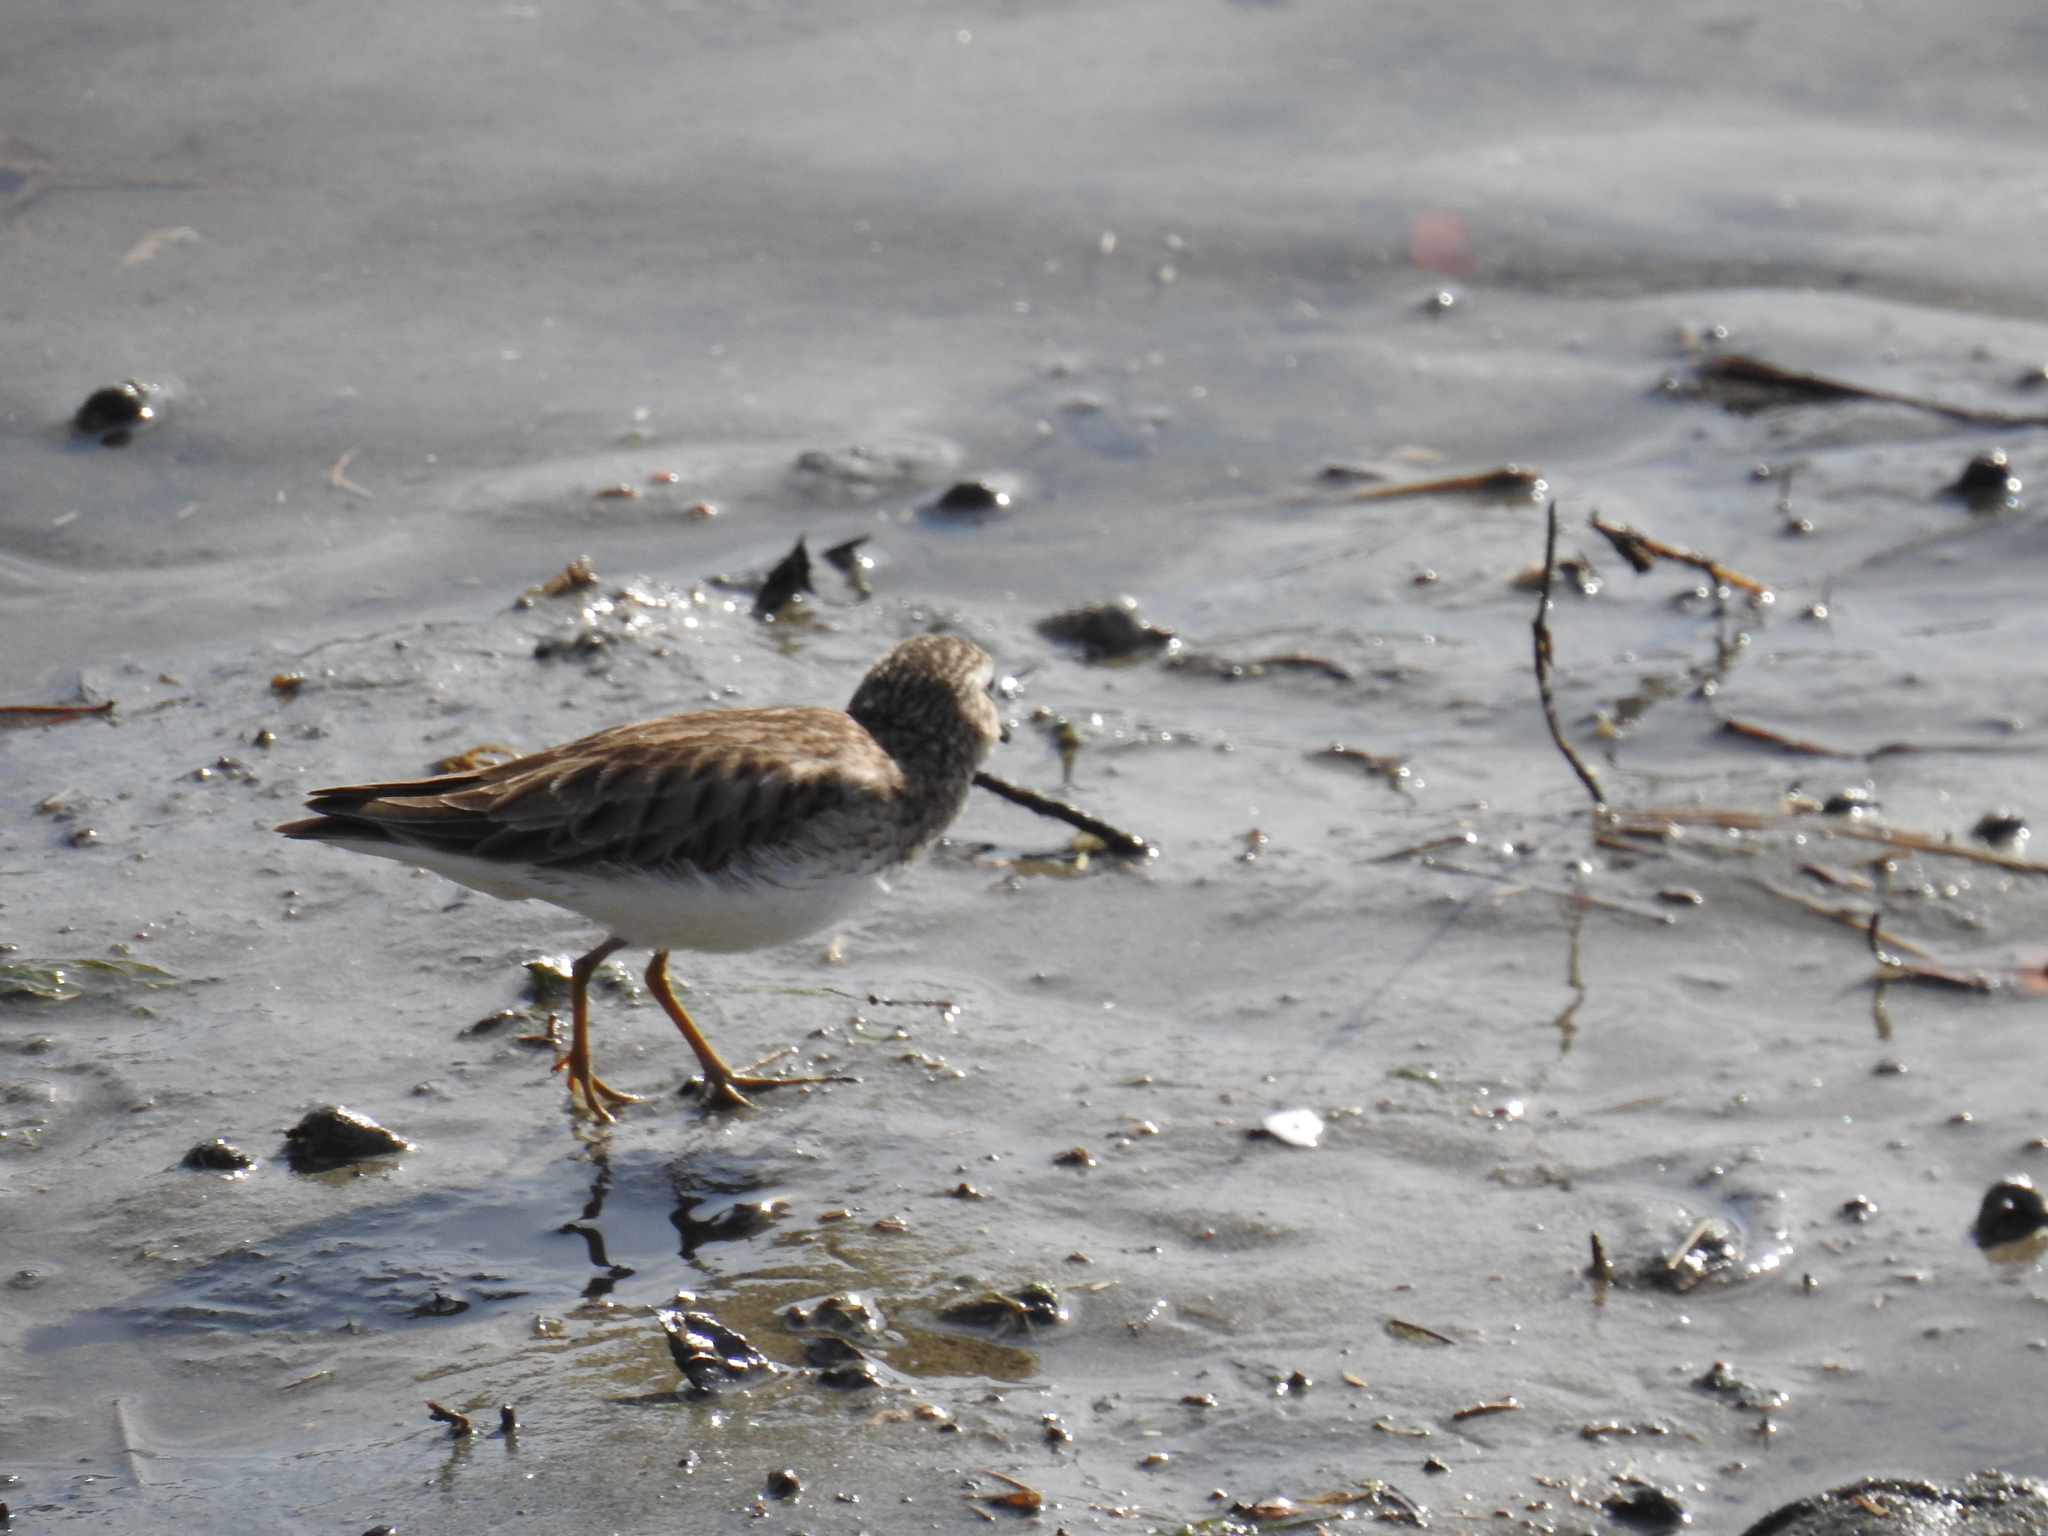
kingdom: Animalia
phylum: Chordata
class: Aves
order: Charadriiformes
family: Scolopacidae
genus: Calidris
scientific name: Calidris minutilla
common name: Least sandpiper
